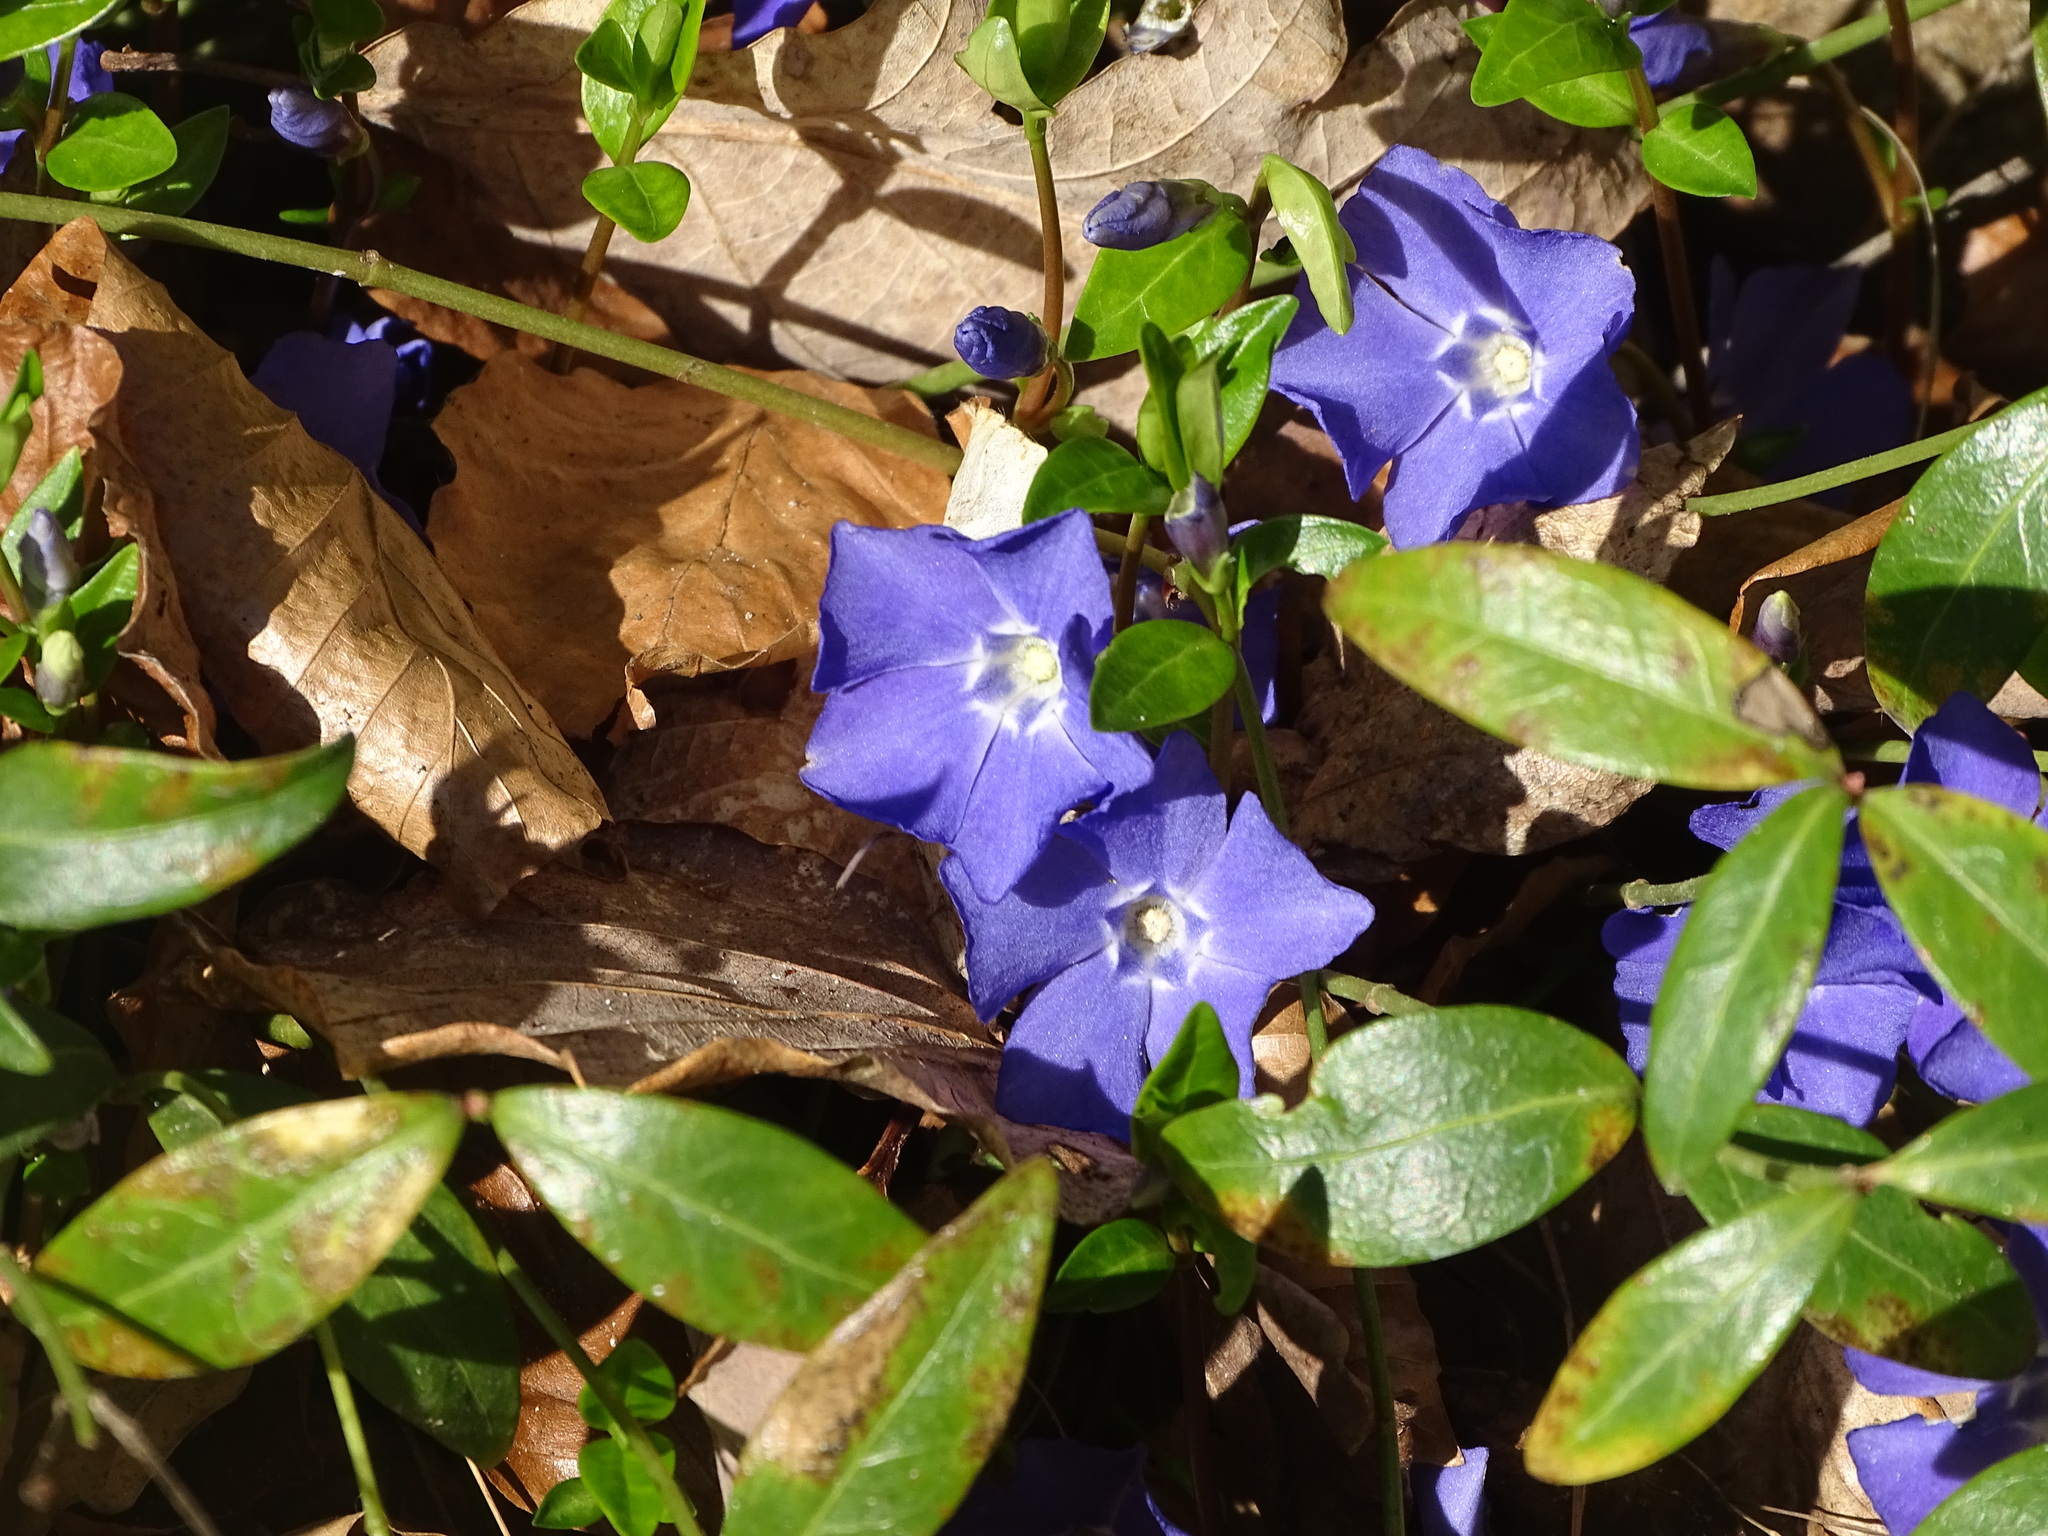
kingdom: Plantae
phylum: Tracheophyta
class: Magnoliopsida
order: Gentianales
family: Apocynaceae
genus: Vinca
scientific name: Vinca minor
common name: Lesser periwinkle
